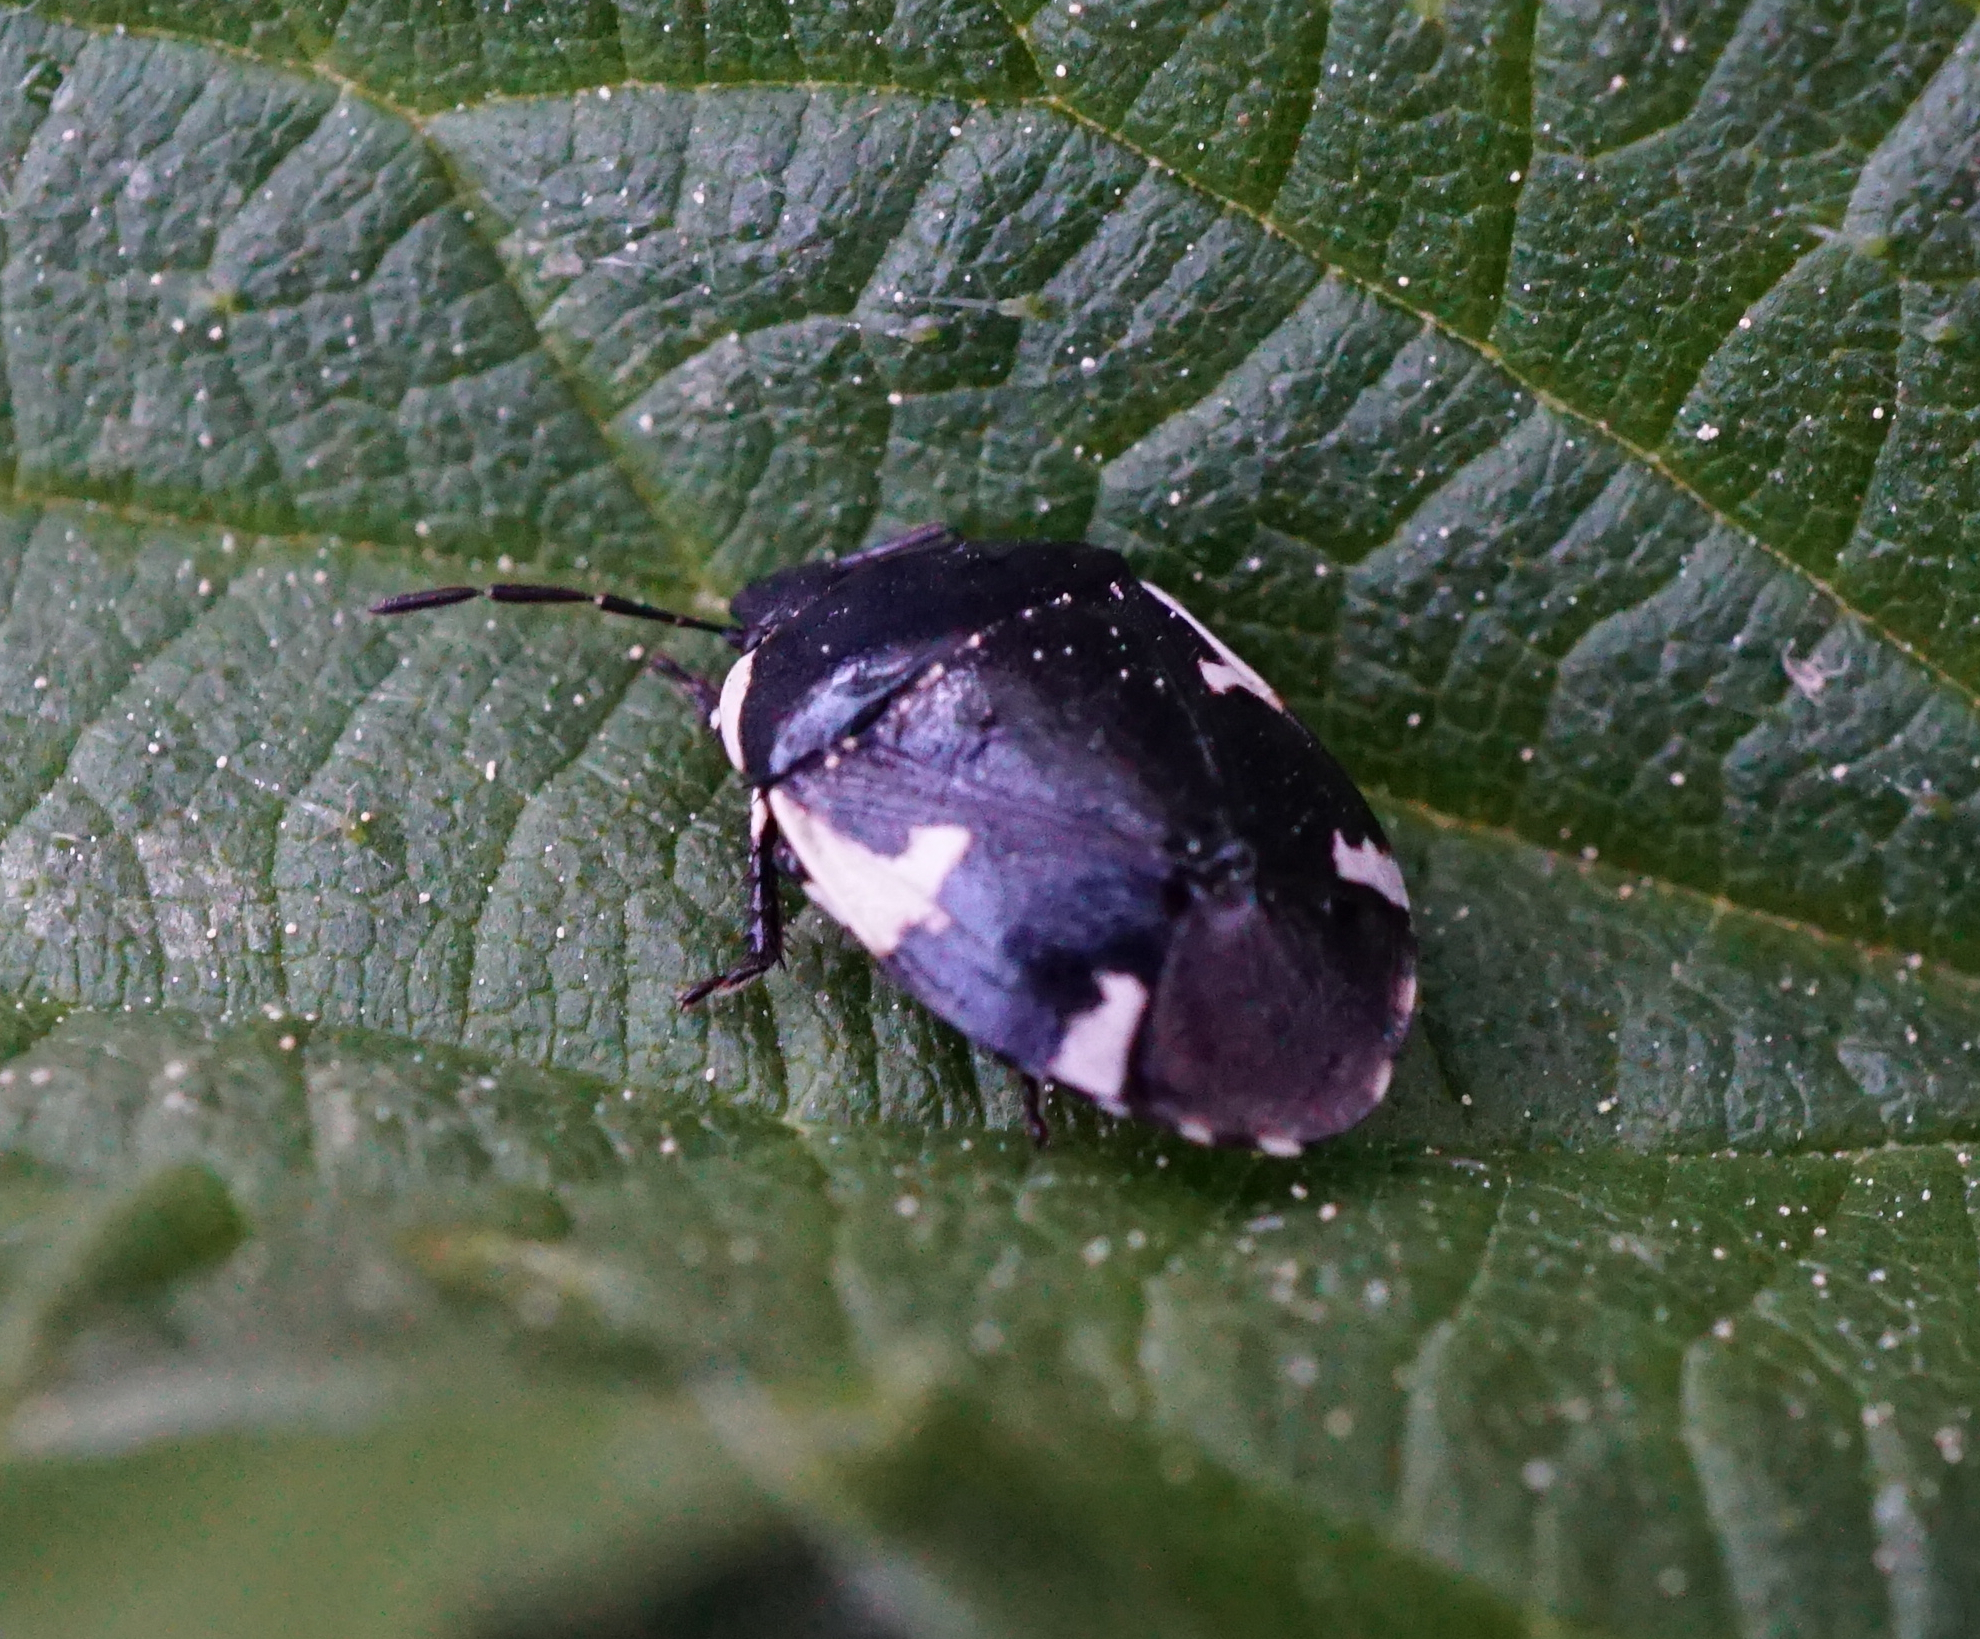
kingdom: Animalia
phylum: Arthropoda
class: Insecta
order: Hemiptera
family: Cydnidae
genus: Tritomegas
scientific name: Tritomegas sexmaculatus
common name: Rambur's pied shieldbug
